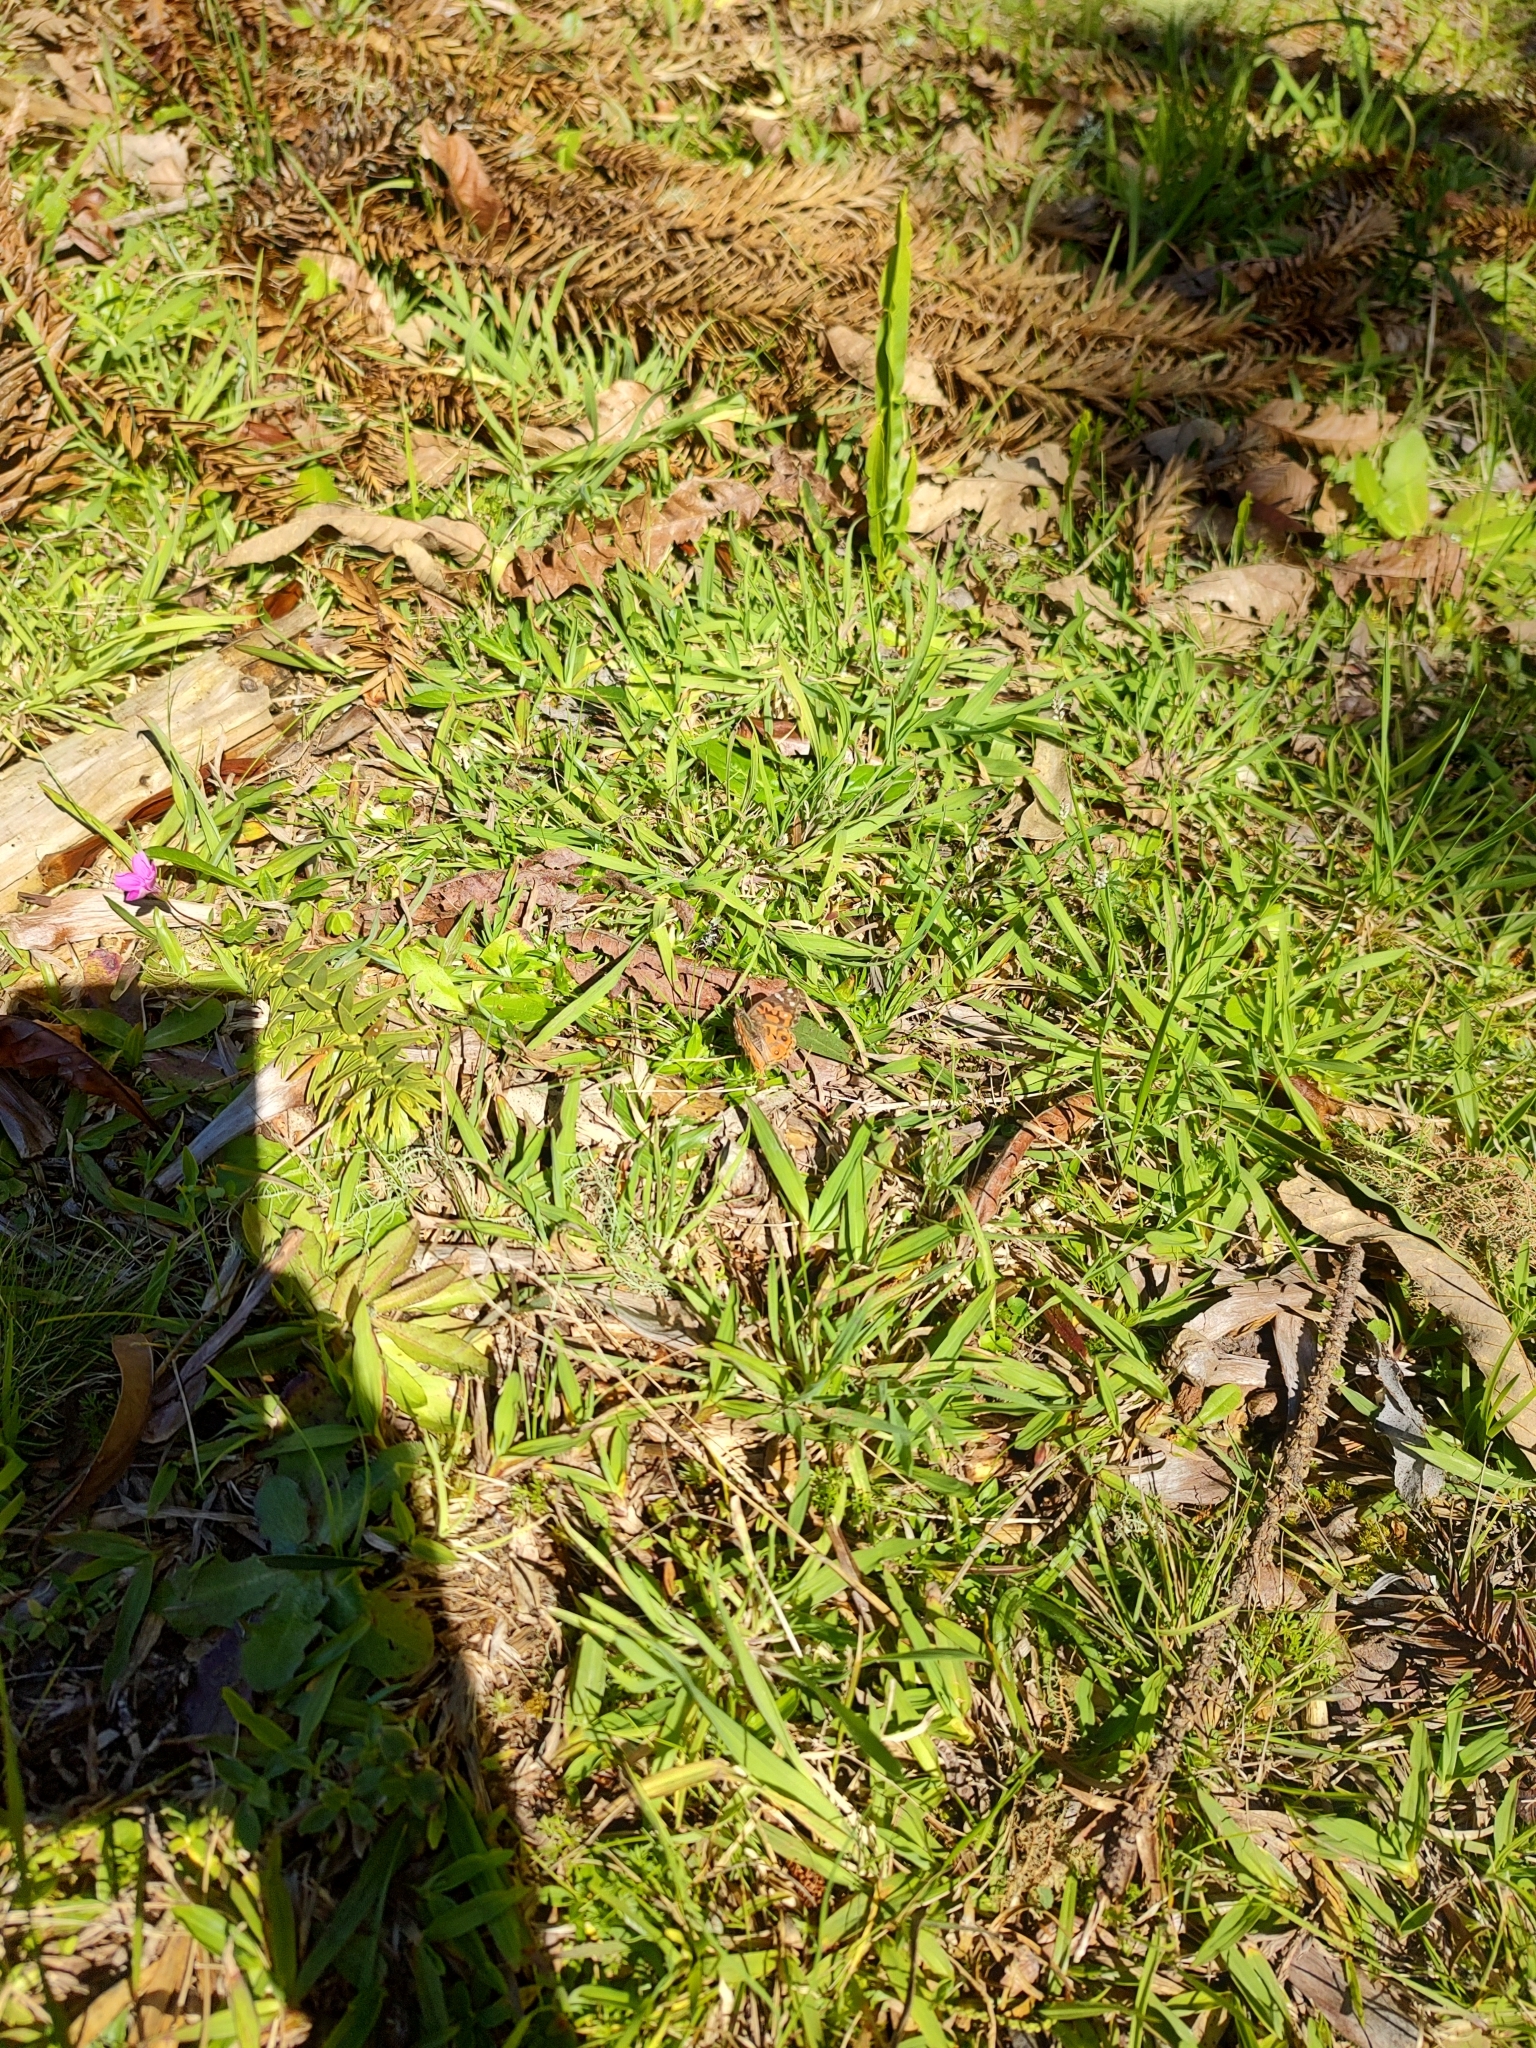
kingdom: Animalia
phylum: Arthropoda
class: Insecta
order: Lepidoptera
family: Nymphalidae
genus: Vanessa
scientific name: Vanessa braziliensis
